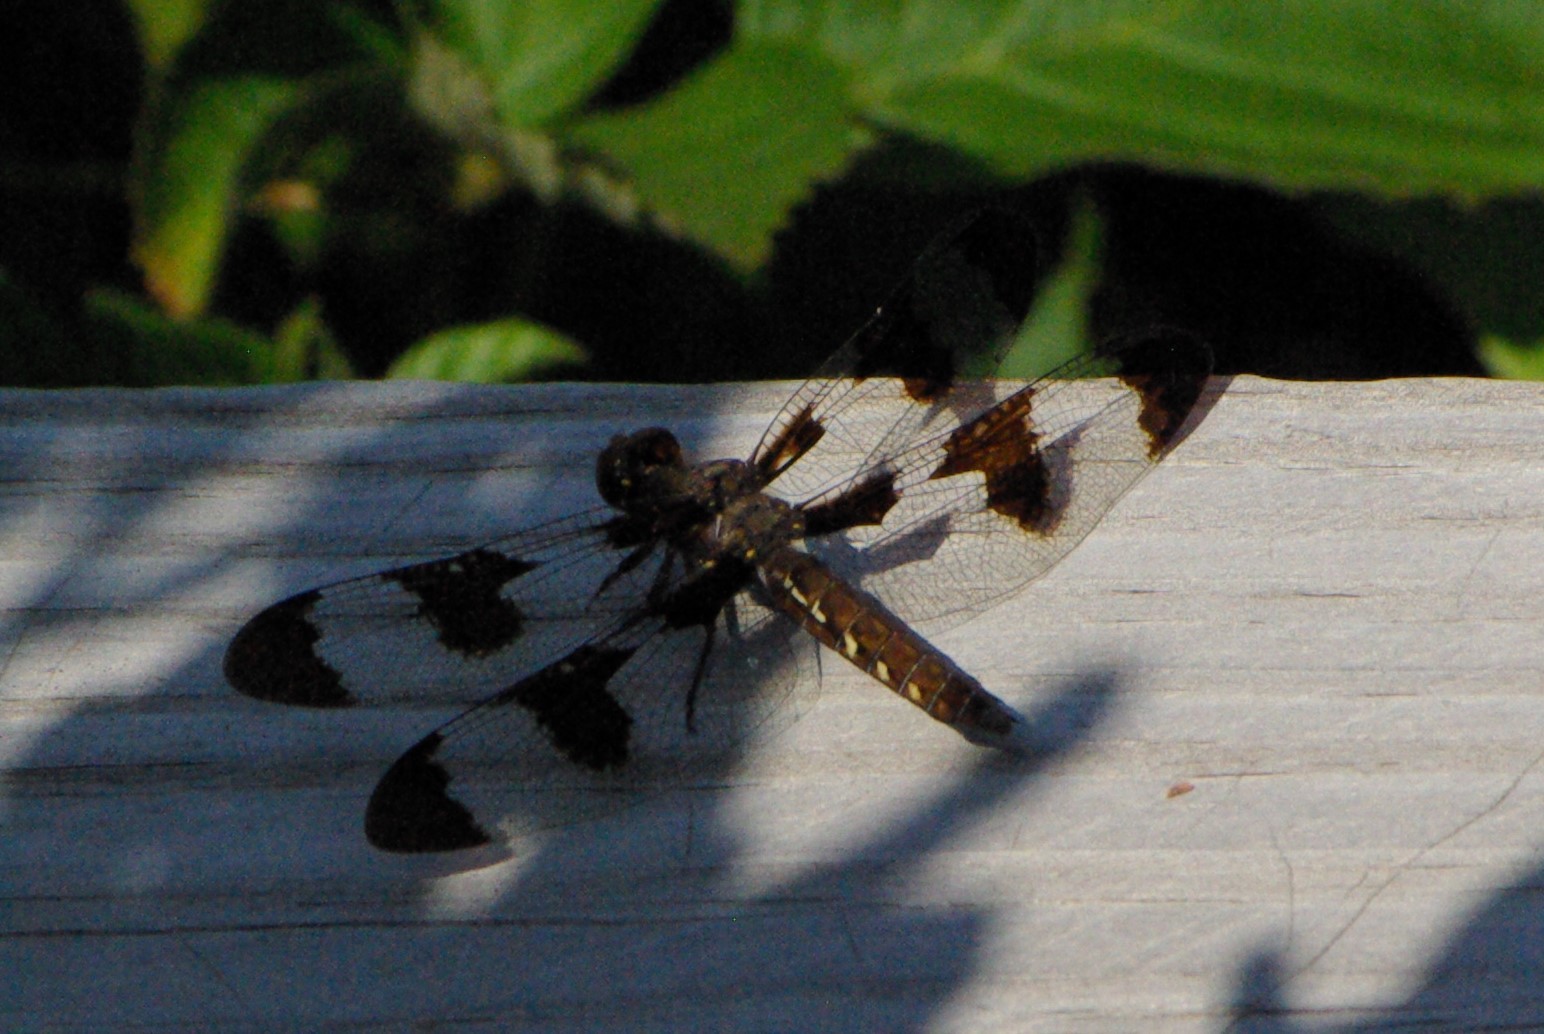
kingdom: Animalia
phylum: Arthropoda
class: Insecta
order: Odonata
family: Libellulidae
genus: Plathemis
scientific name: Plathemis lydia
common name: Common whitetail
